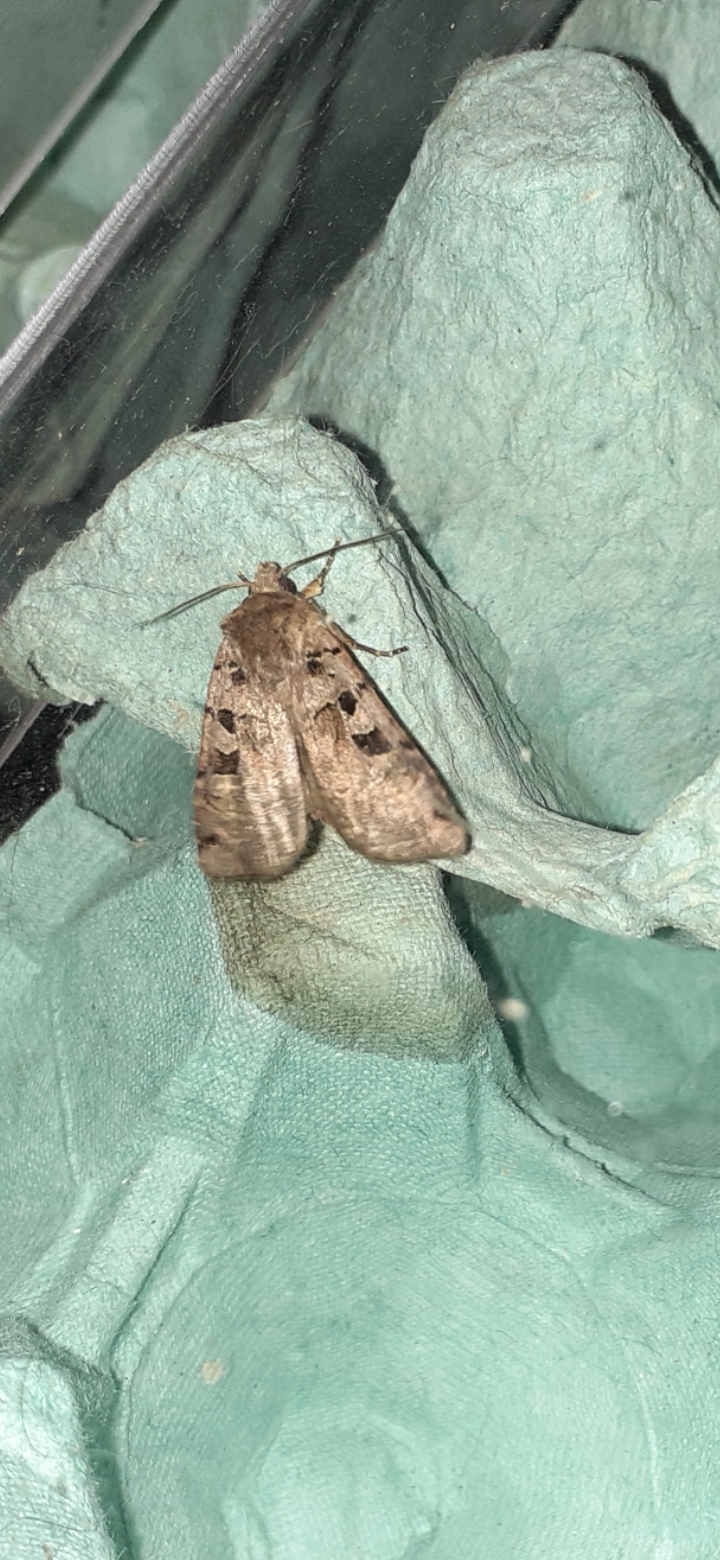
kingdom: Animalia
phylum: Arthropoda
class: Insecta
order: Lepidoptera
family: Noctuidae
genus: Xestia
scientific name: Xestia triangulum
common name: Double square-spot
